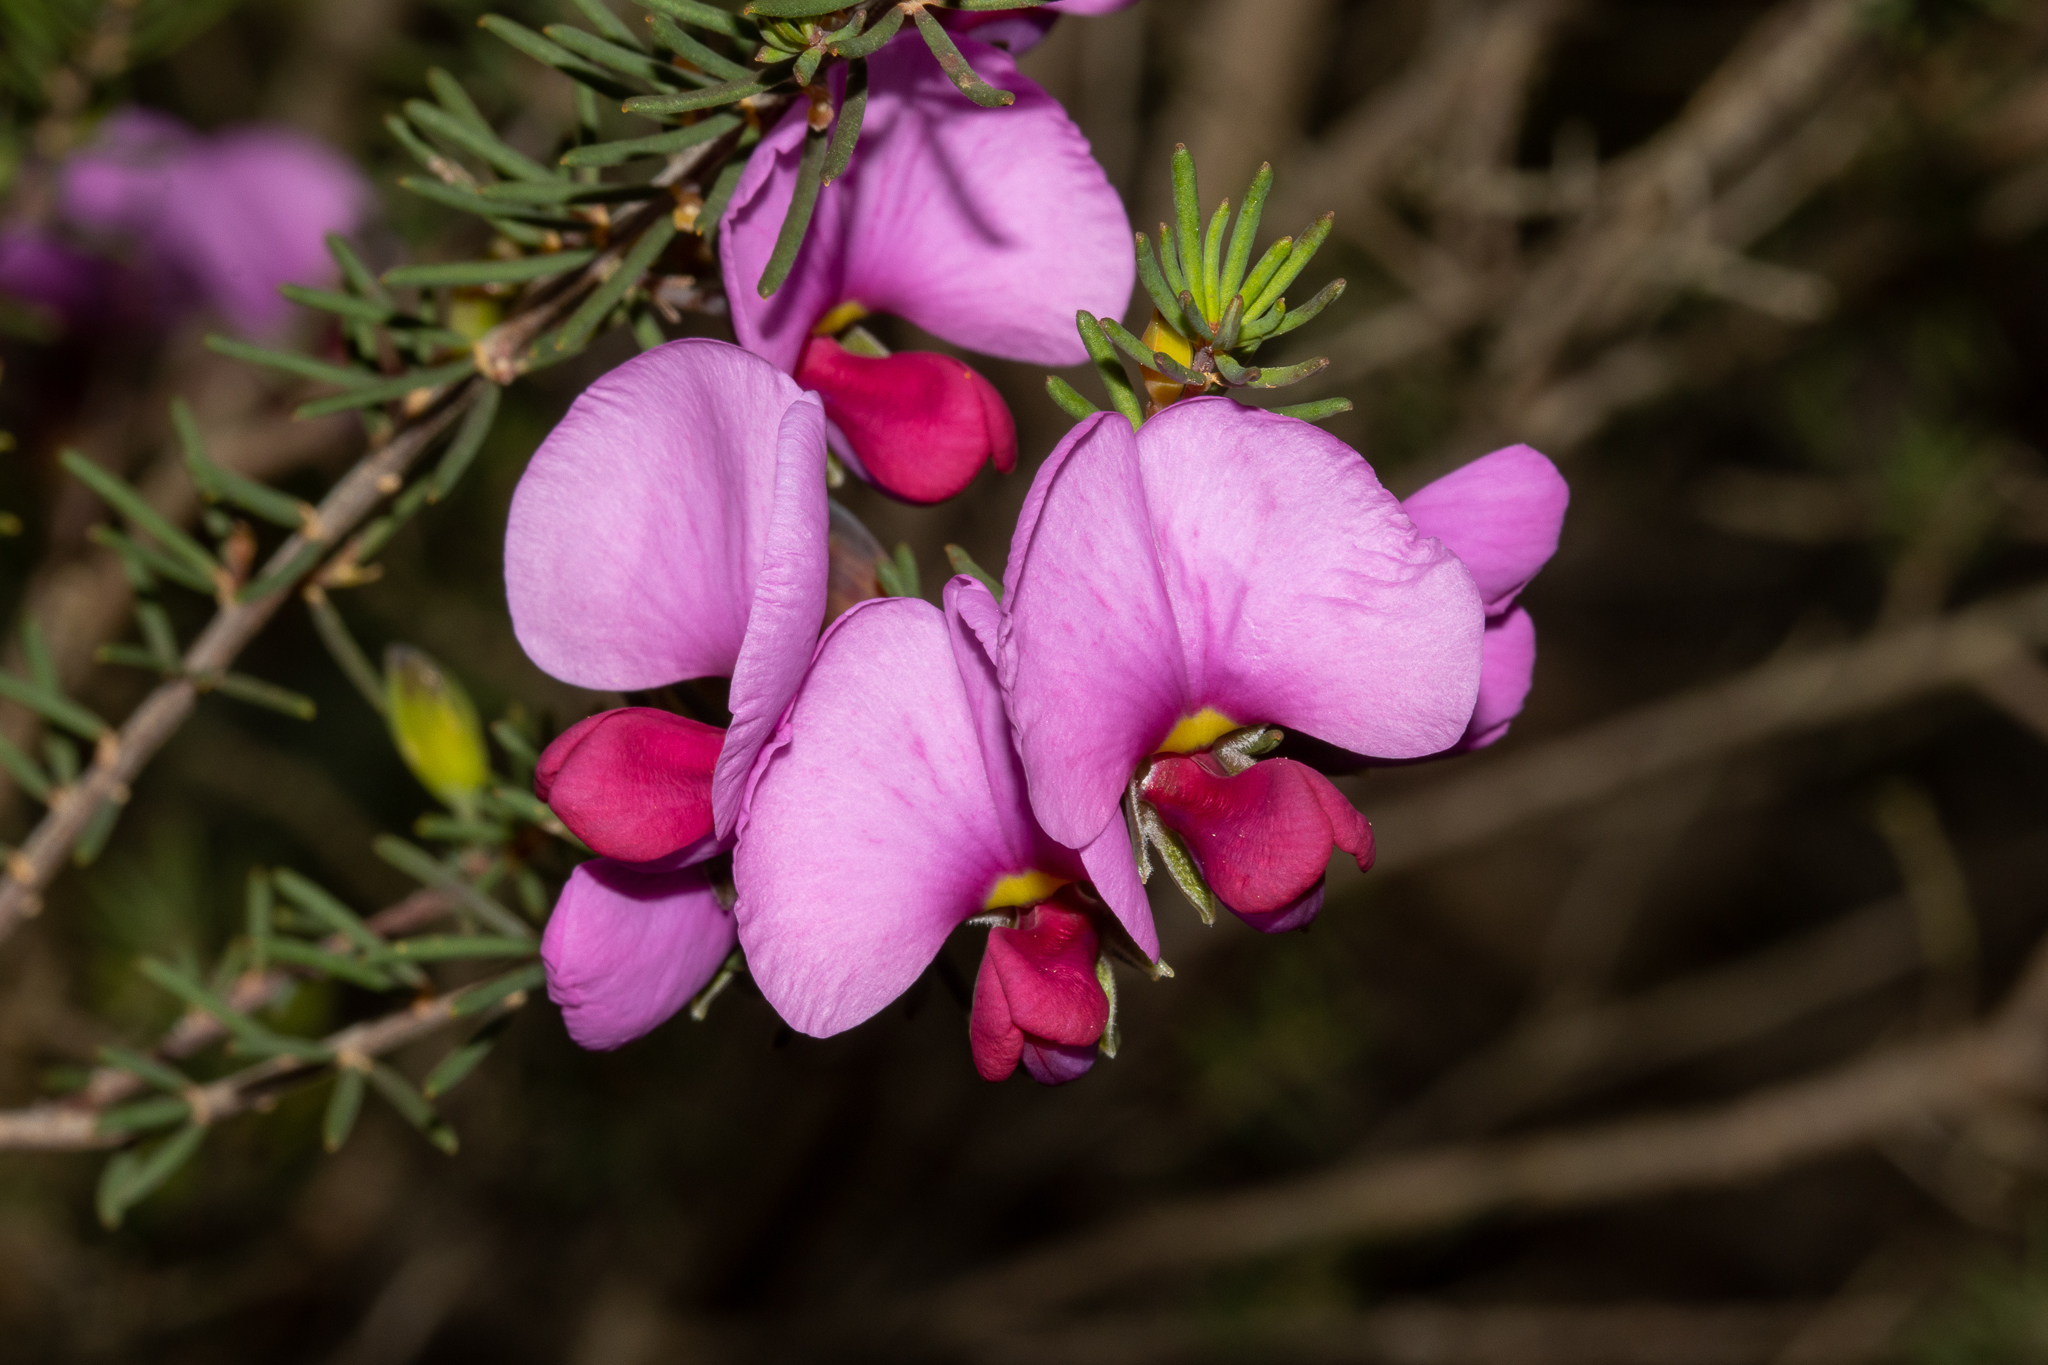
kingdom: Plantae
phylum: Tracheophyta
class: Magnoliopsida
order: Fabales
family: Fabaceae
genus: Gompholobium
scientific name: Gompholobium scabrum
